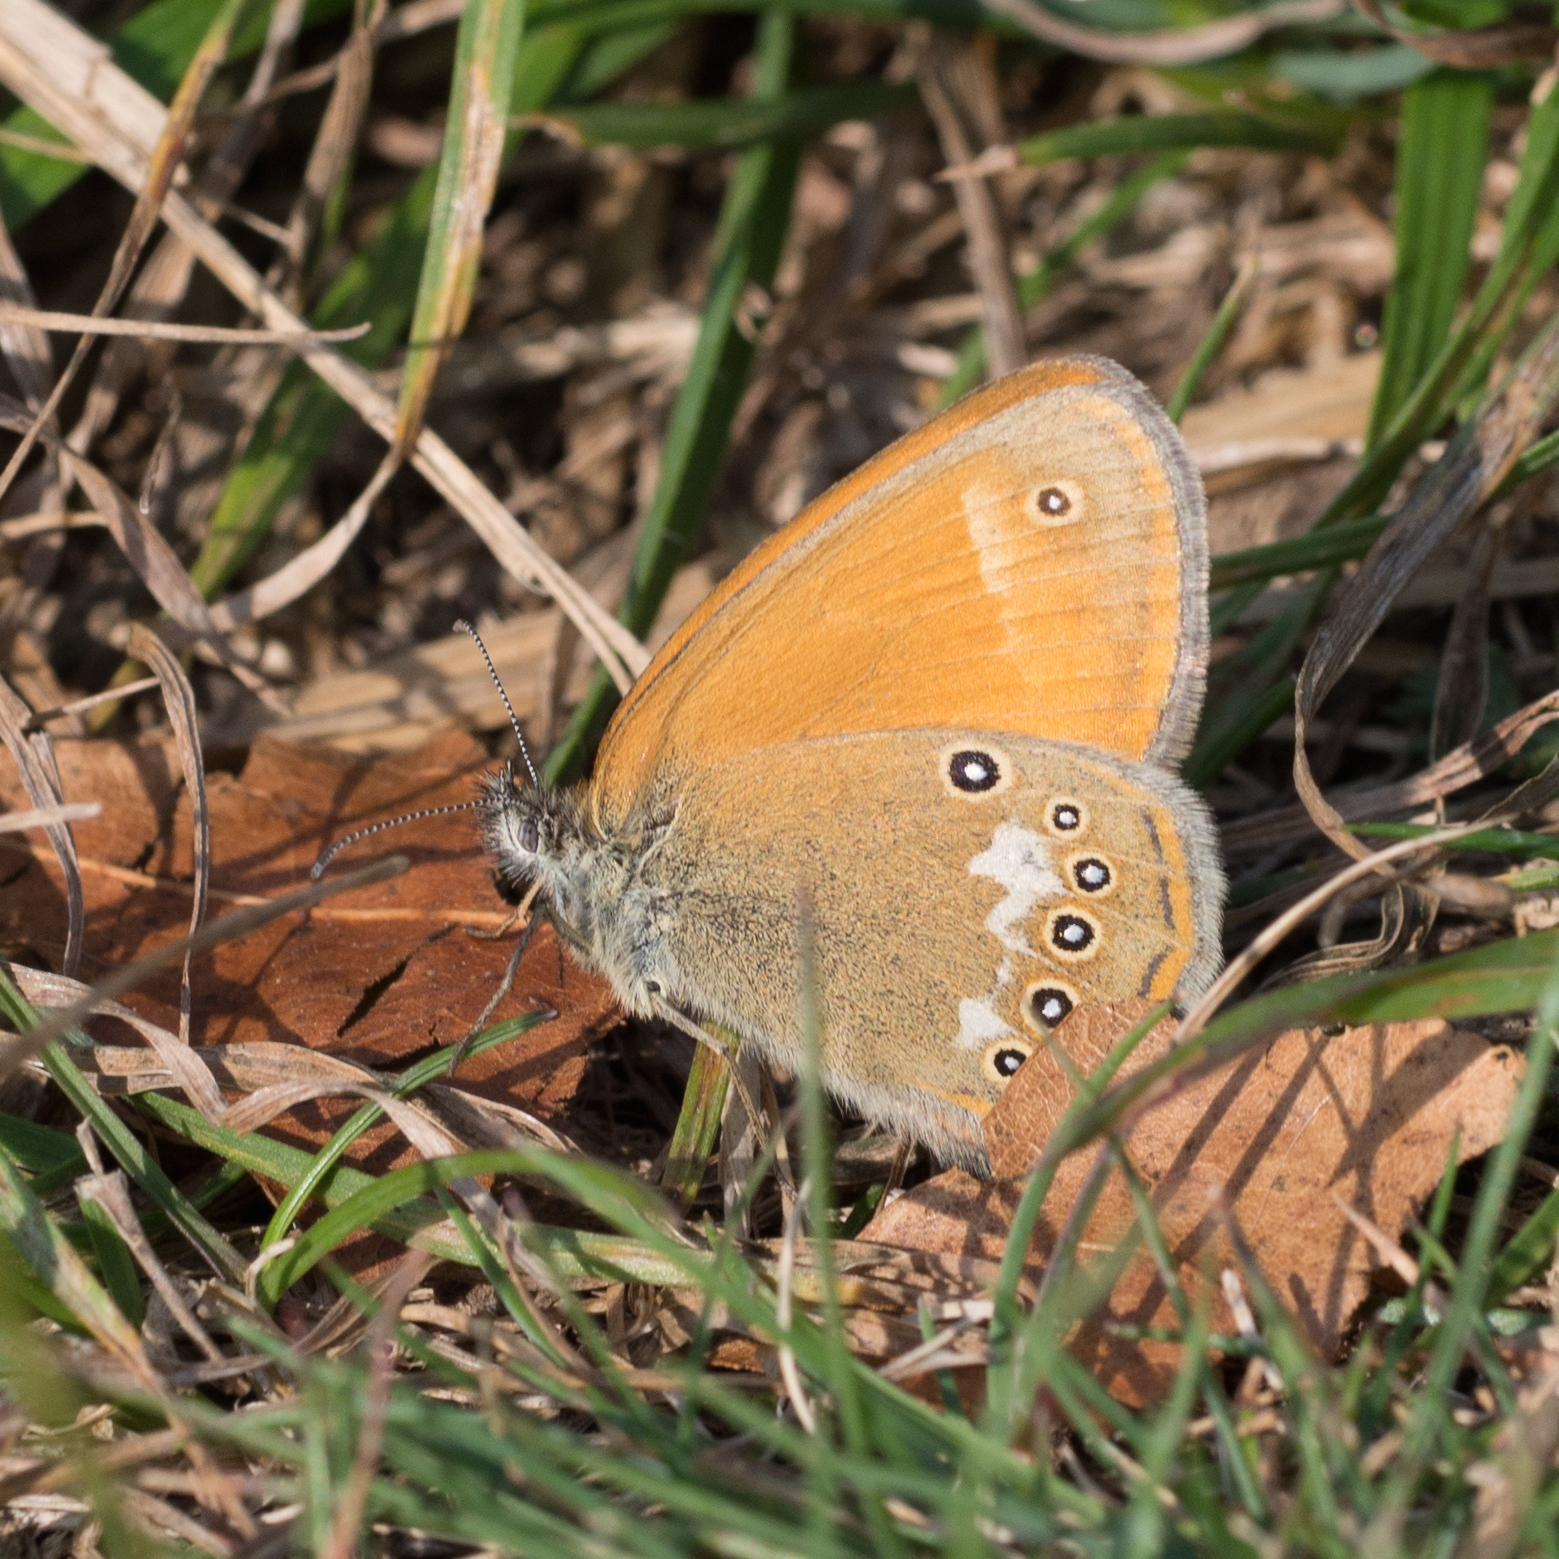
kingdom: Animalia
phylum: Arthropoda
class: Insecta
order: Lepidoptera
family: Nymphalidae
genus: Coenonympha
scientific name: Coenonympha iphis
